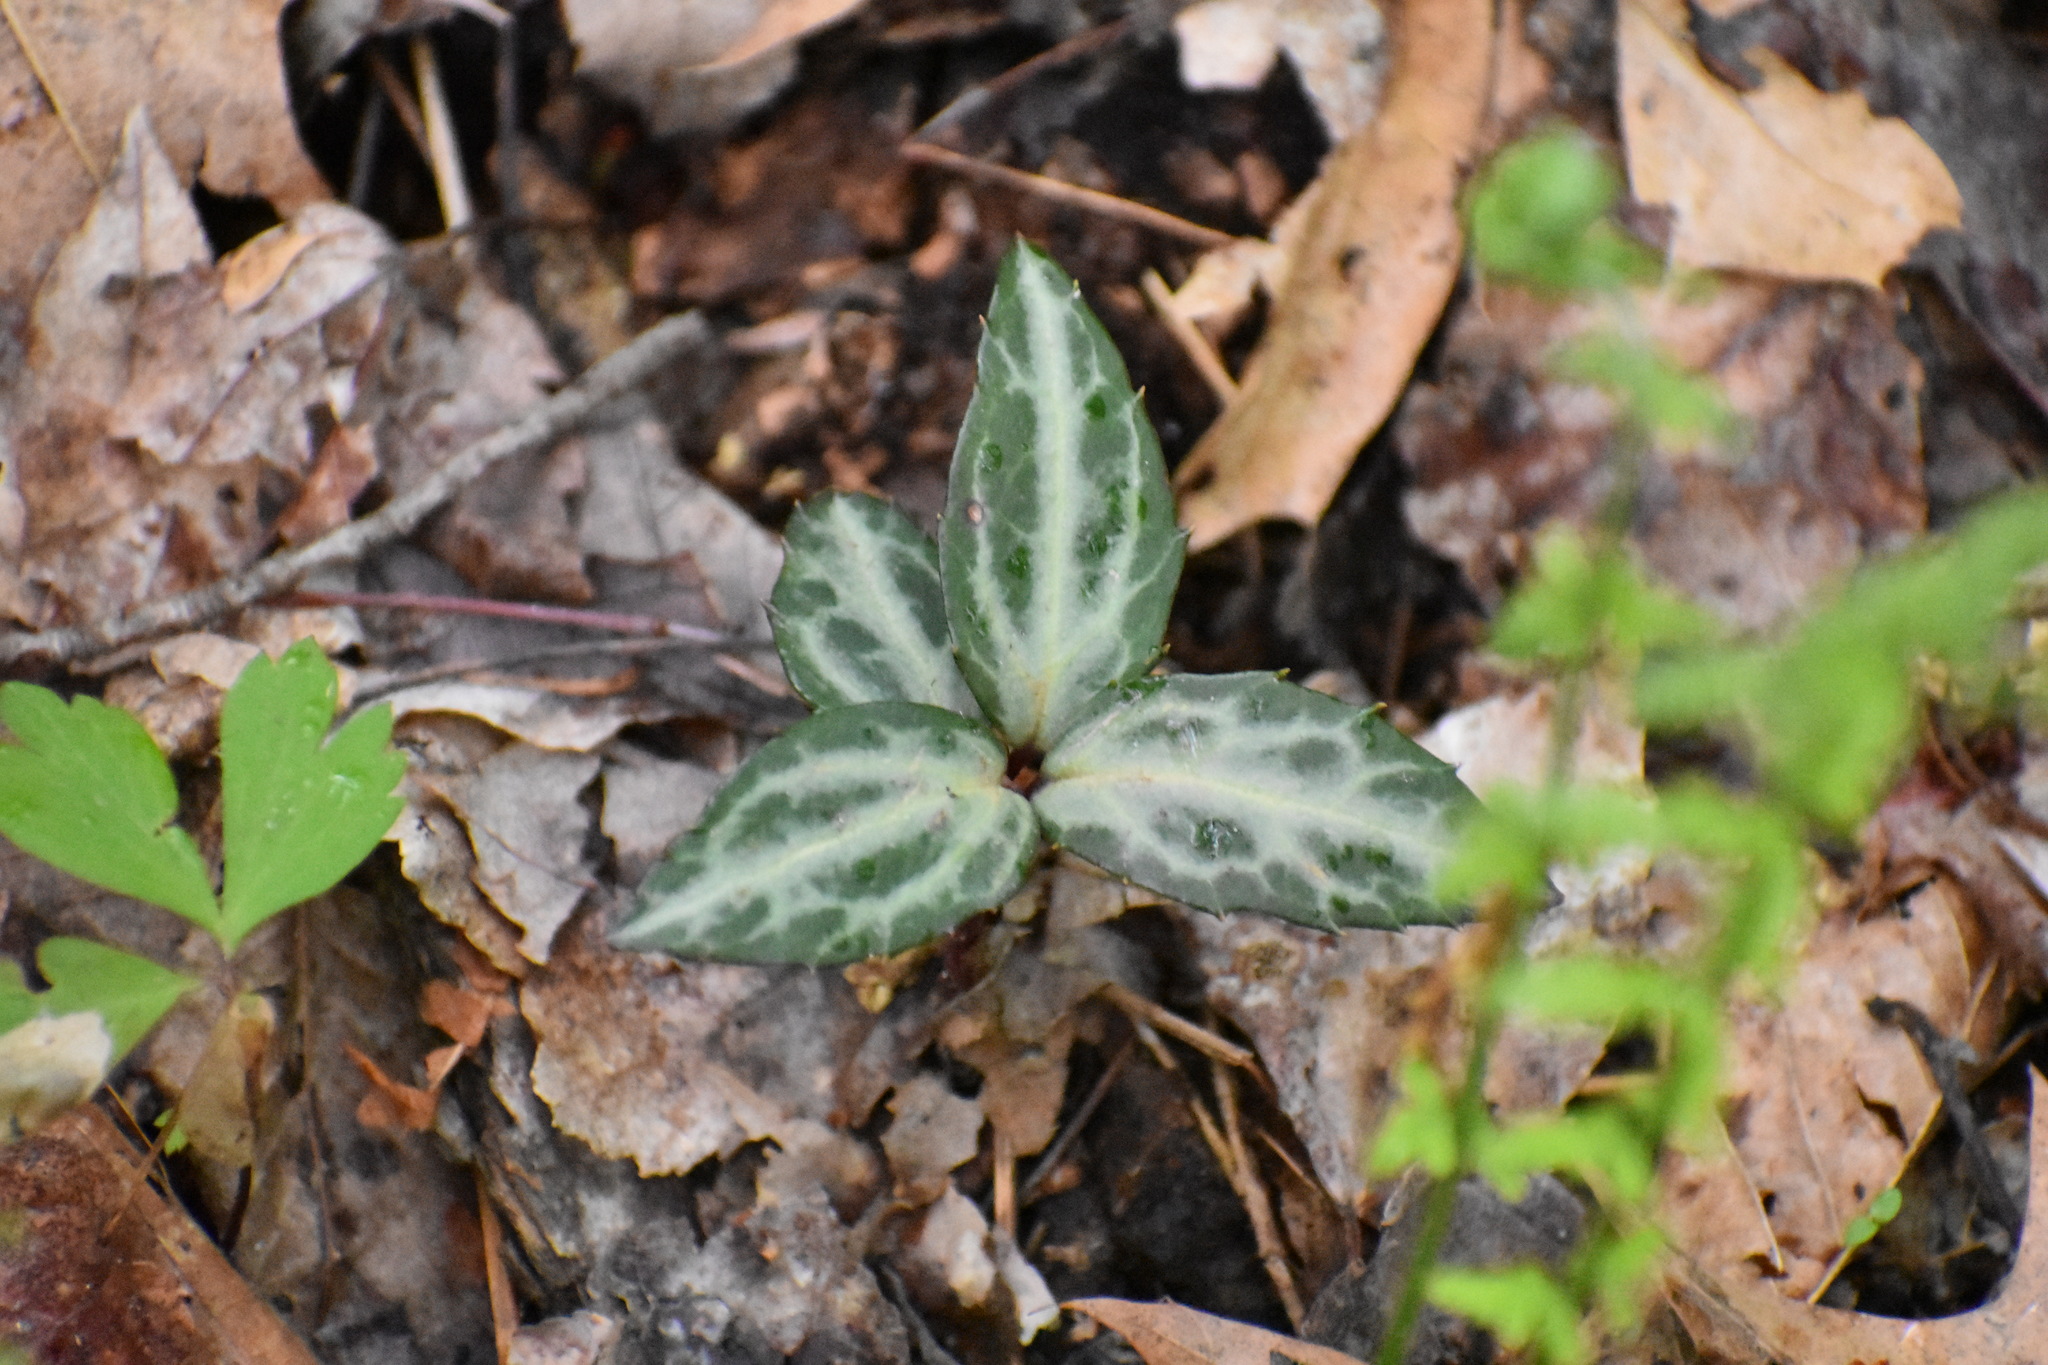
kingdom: Plantae
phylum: Tracheophyta
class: Magnoliopsida
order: Ericales
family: Ericaceae
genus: Chimaphila
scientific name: Chimaphila maculata
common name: Spotted pipsissewa
